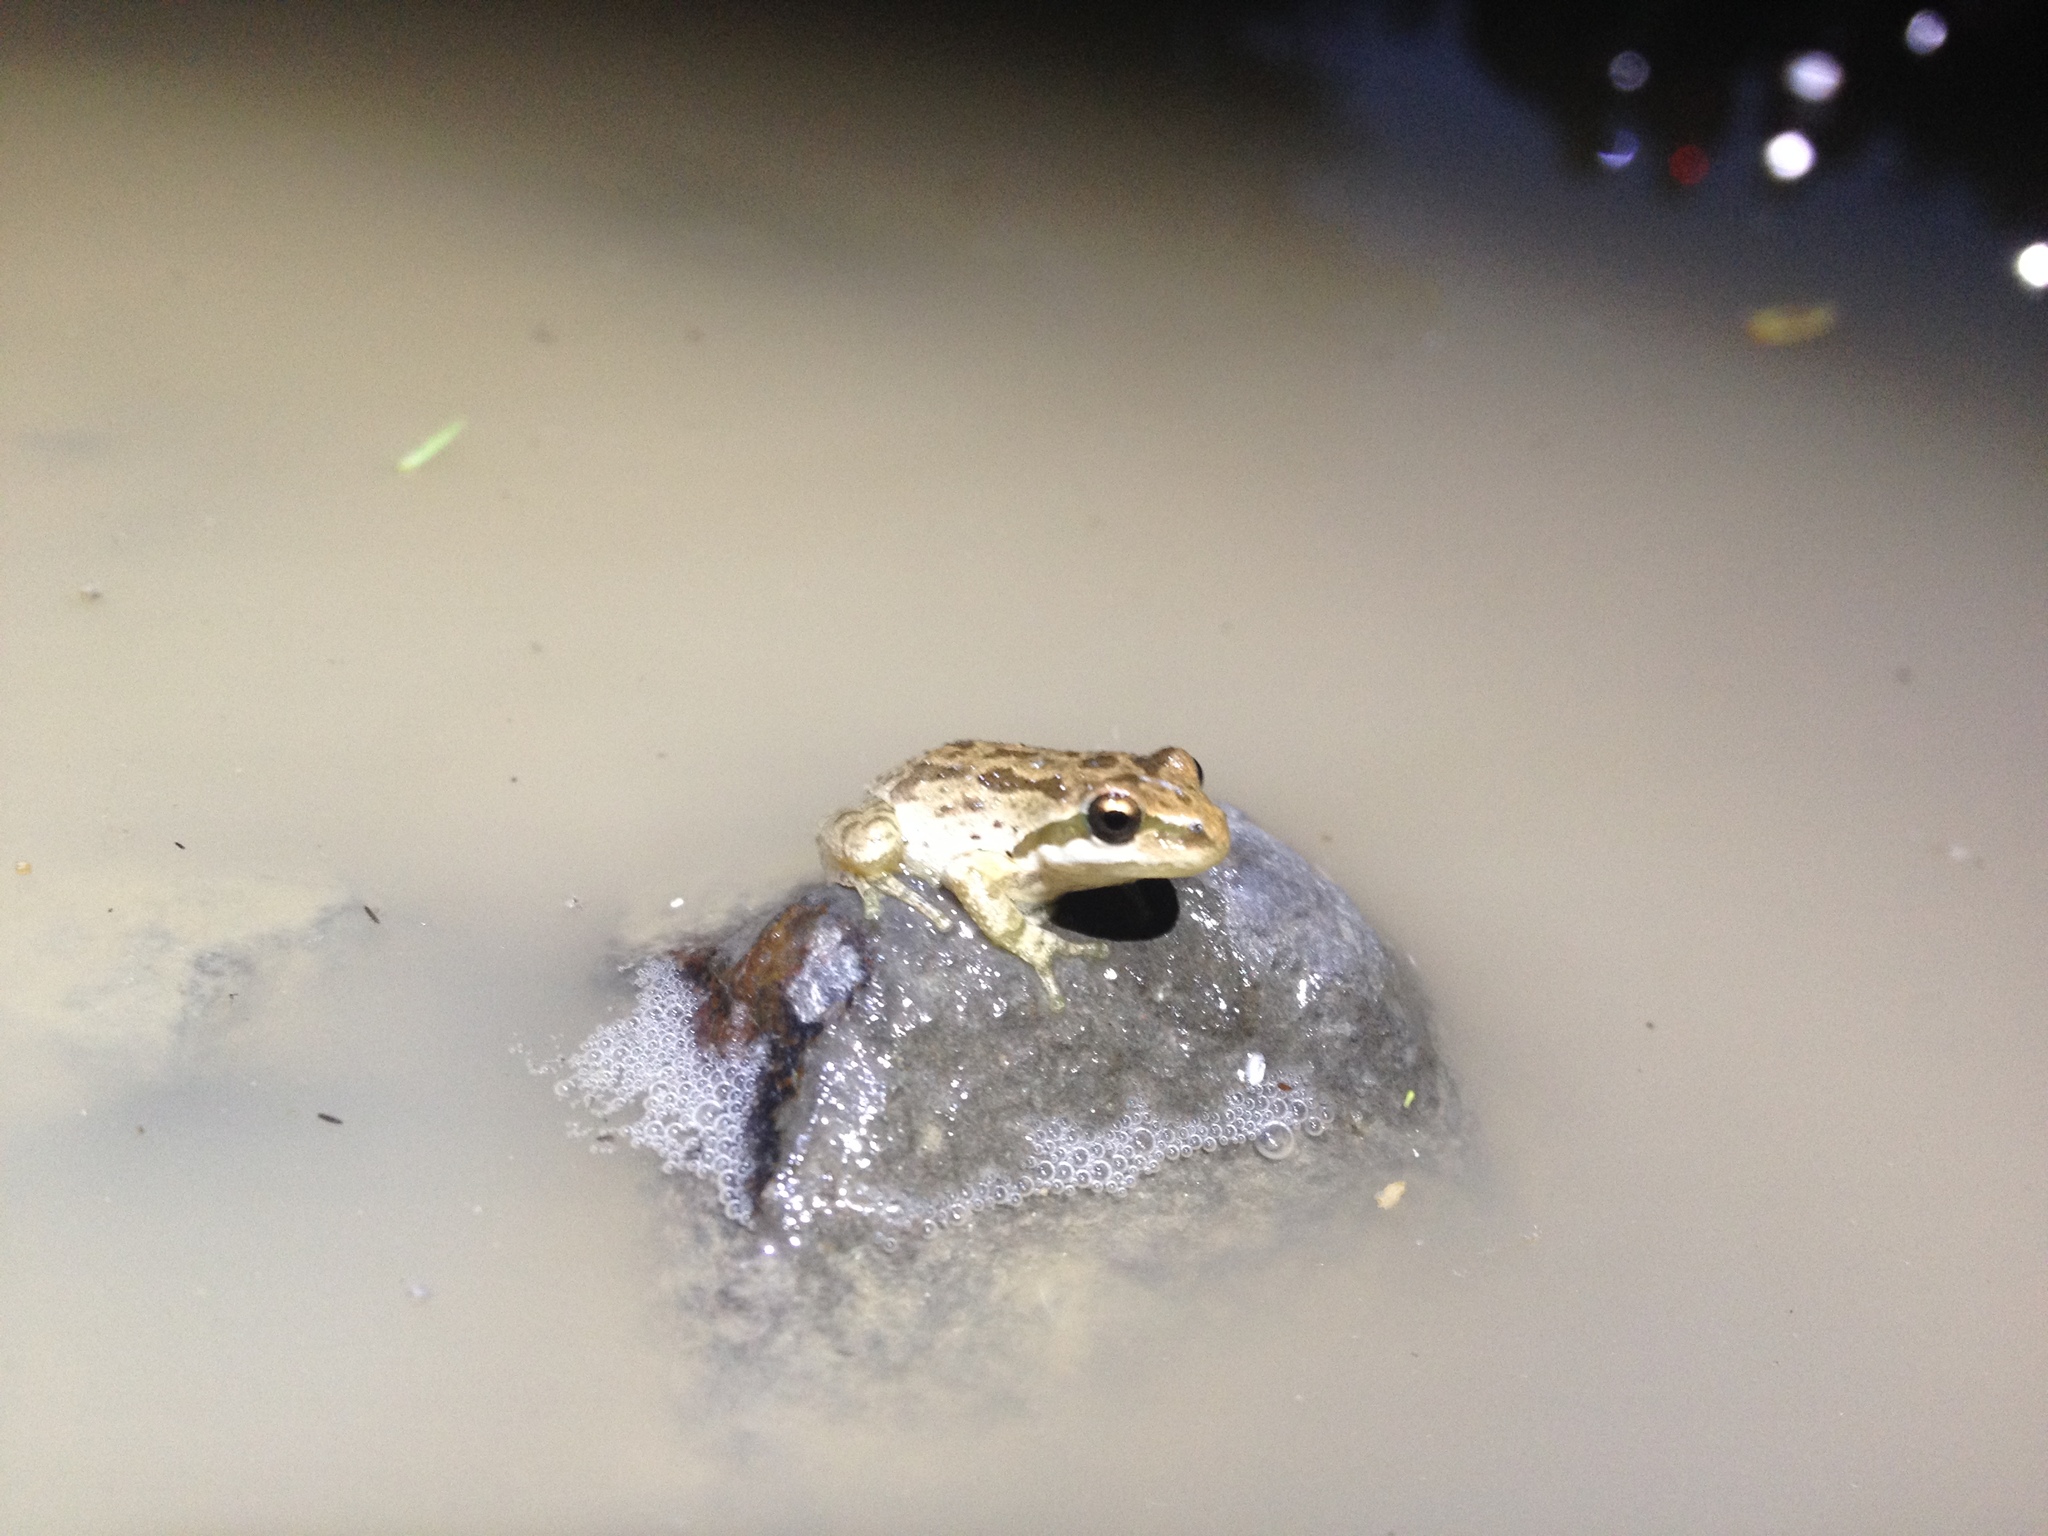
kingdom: Animalia
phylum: Chordata
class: Amphibia
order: Anura
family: Hylidae
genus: Pseudacris
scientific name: Pseudacris regilla
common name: Pacific chorus frog
